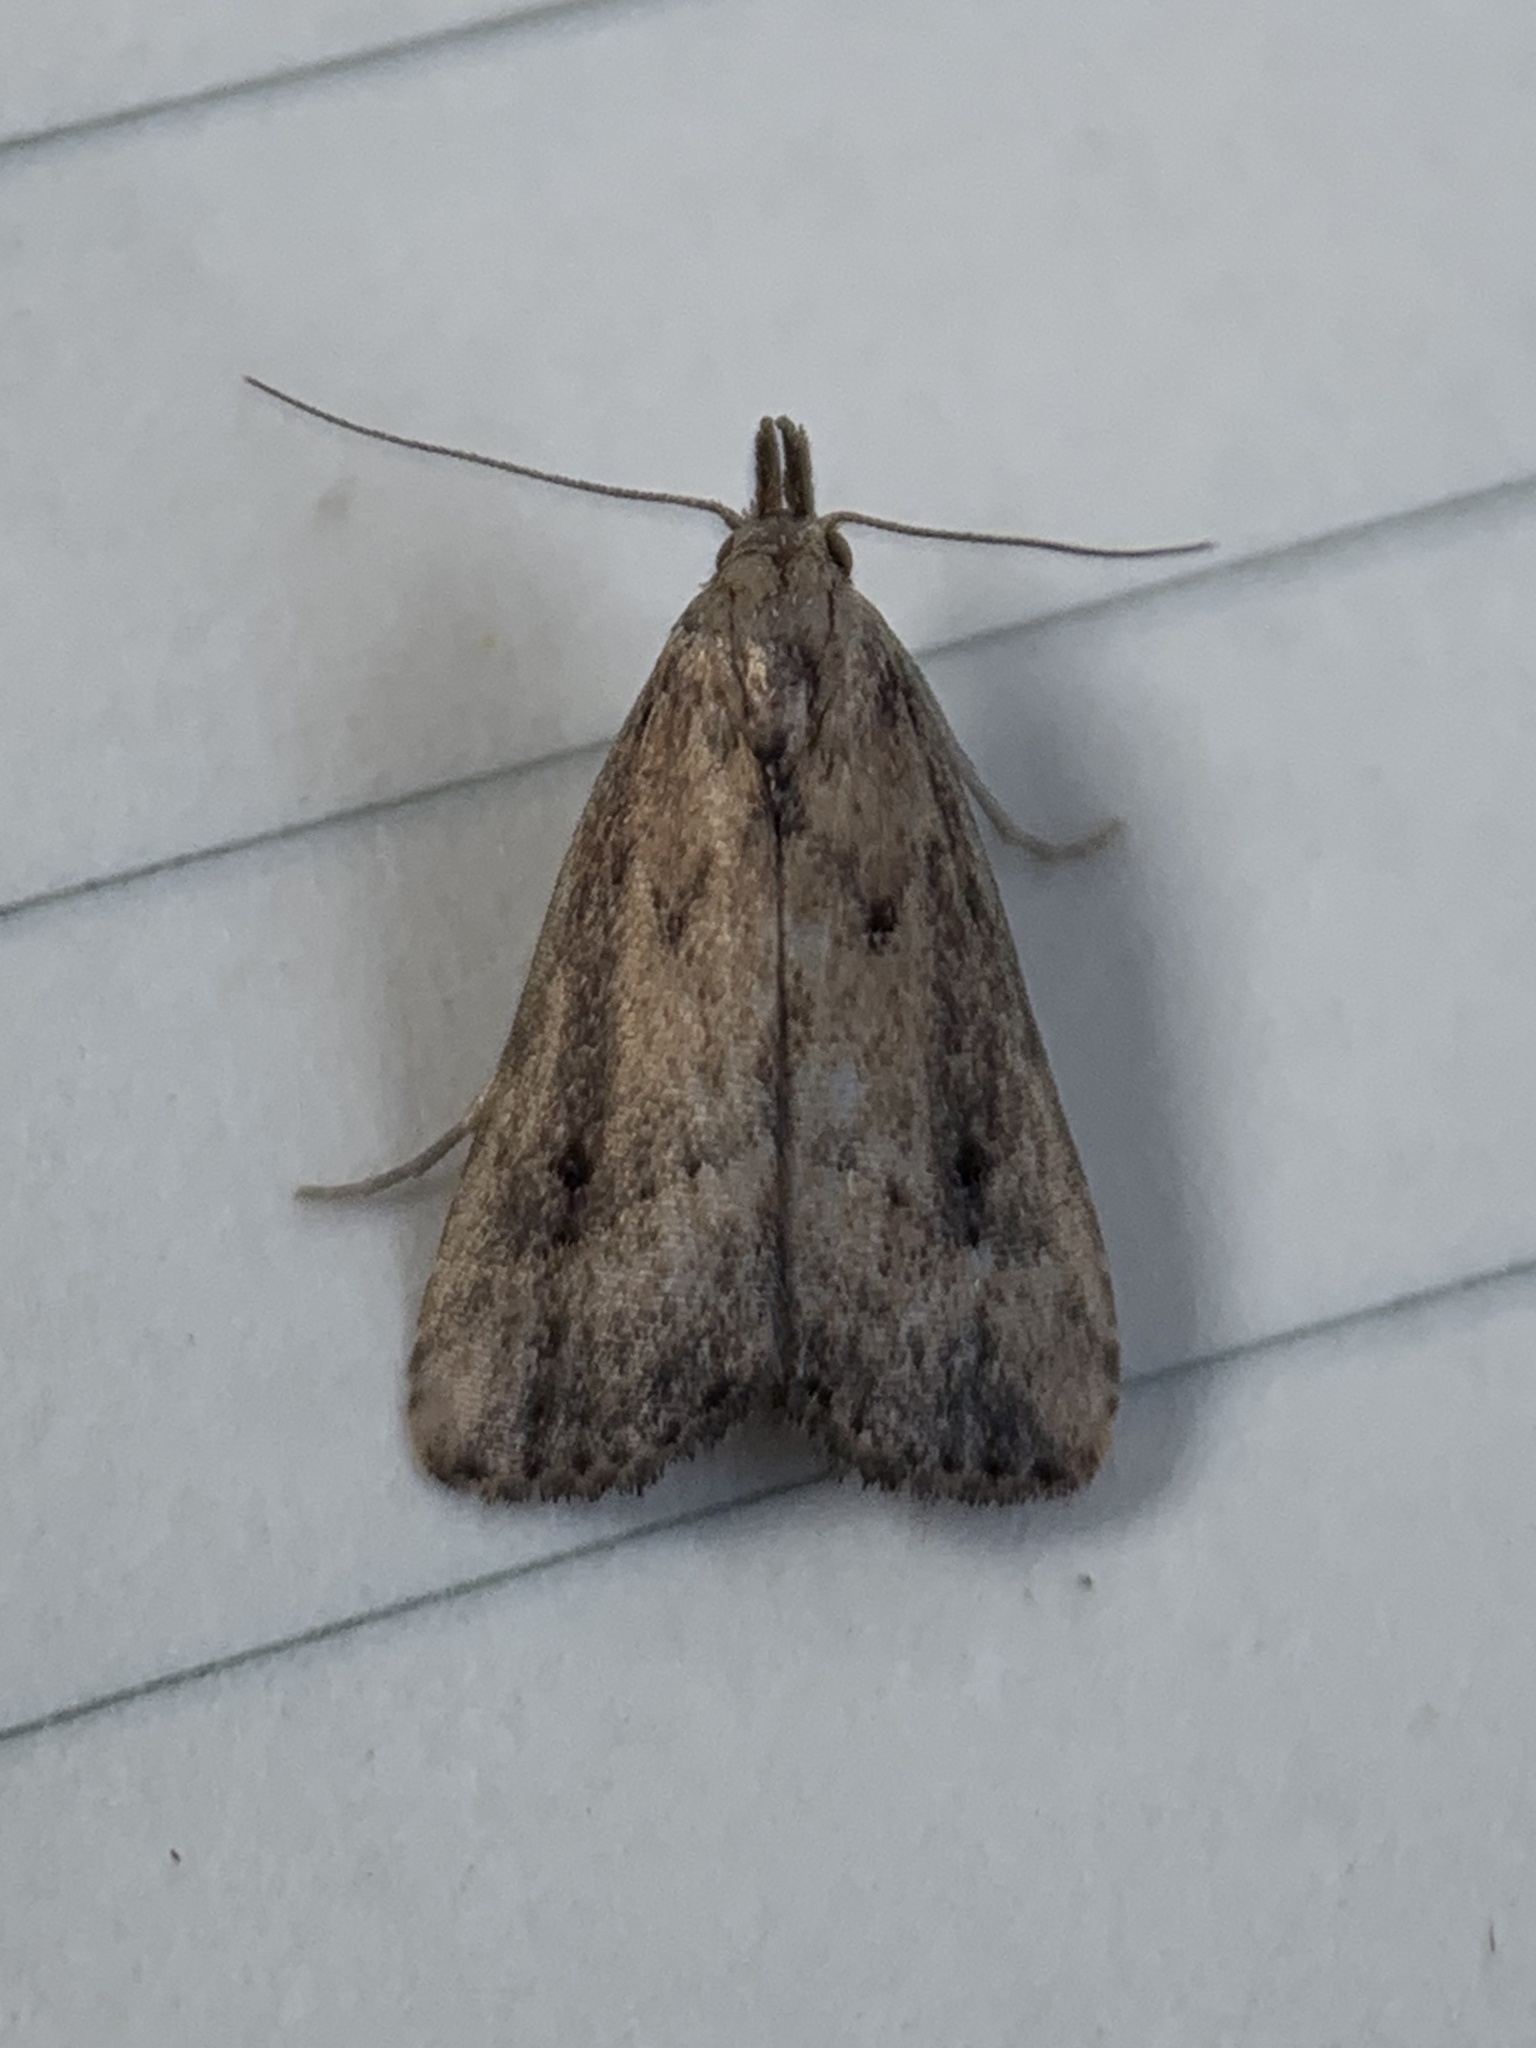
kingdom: Animalia
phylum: Arthropoda
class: Insecta
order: Lepidoptera
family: Erebidae
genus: Schrankia
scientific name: Schrankia
